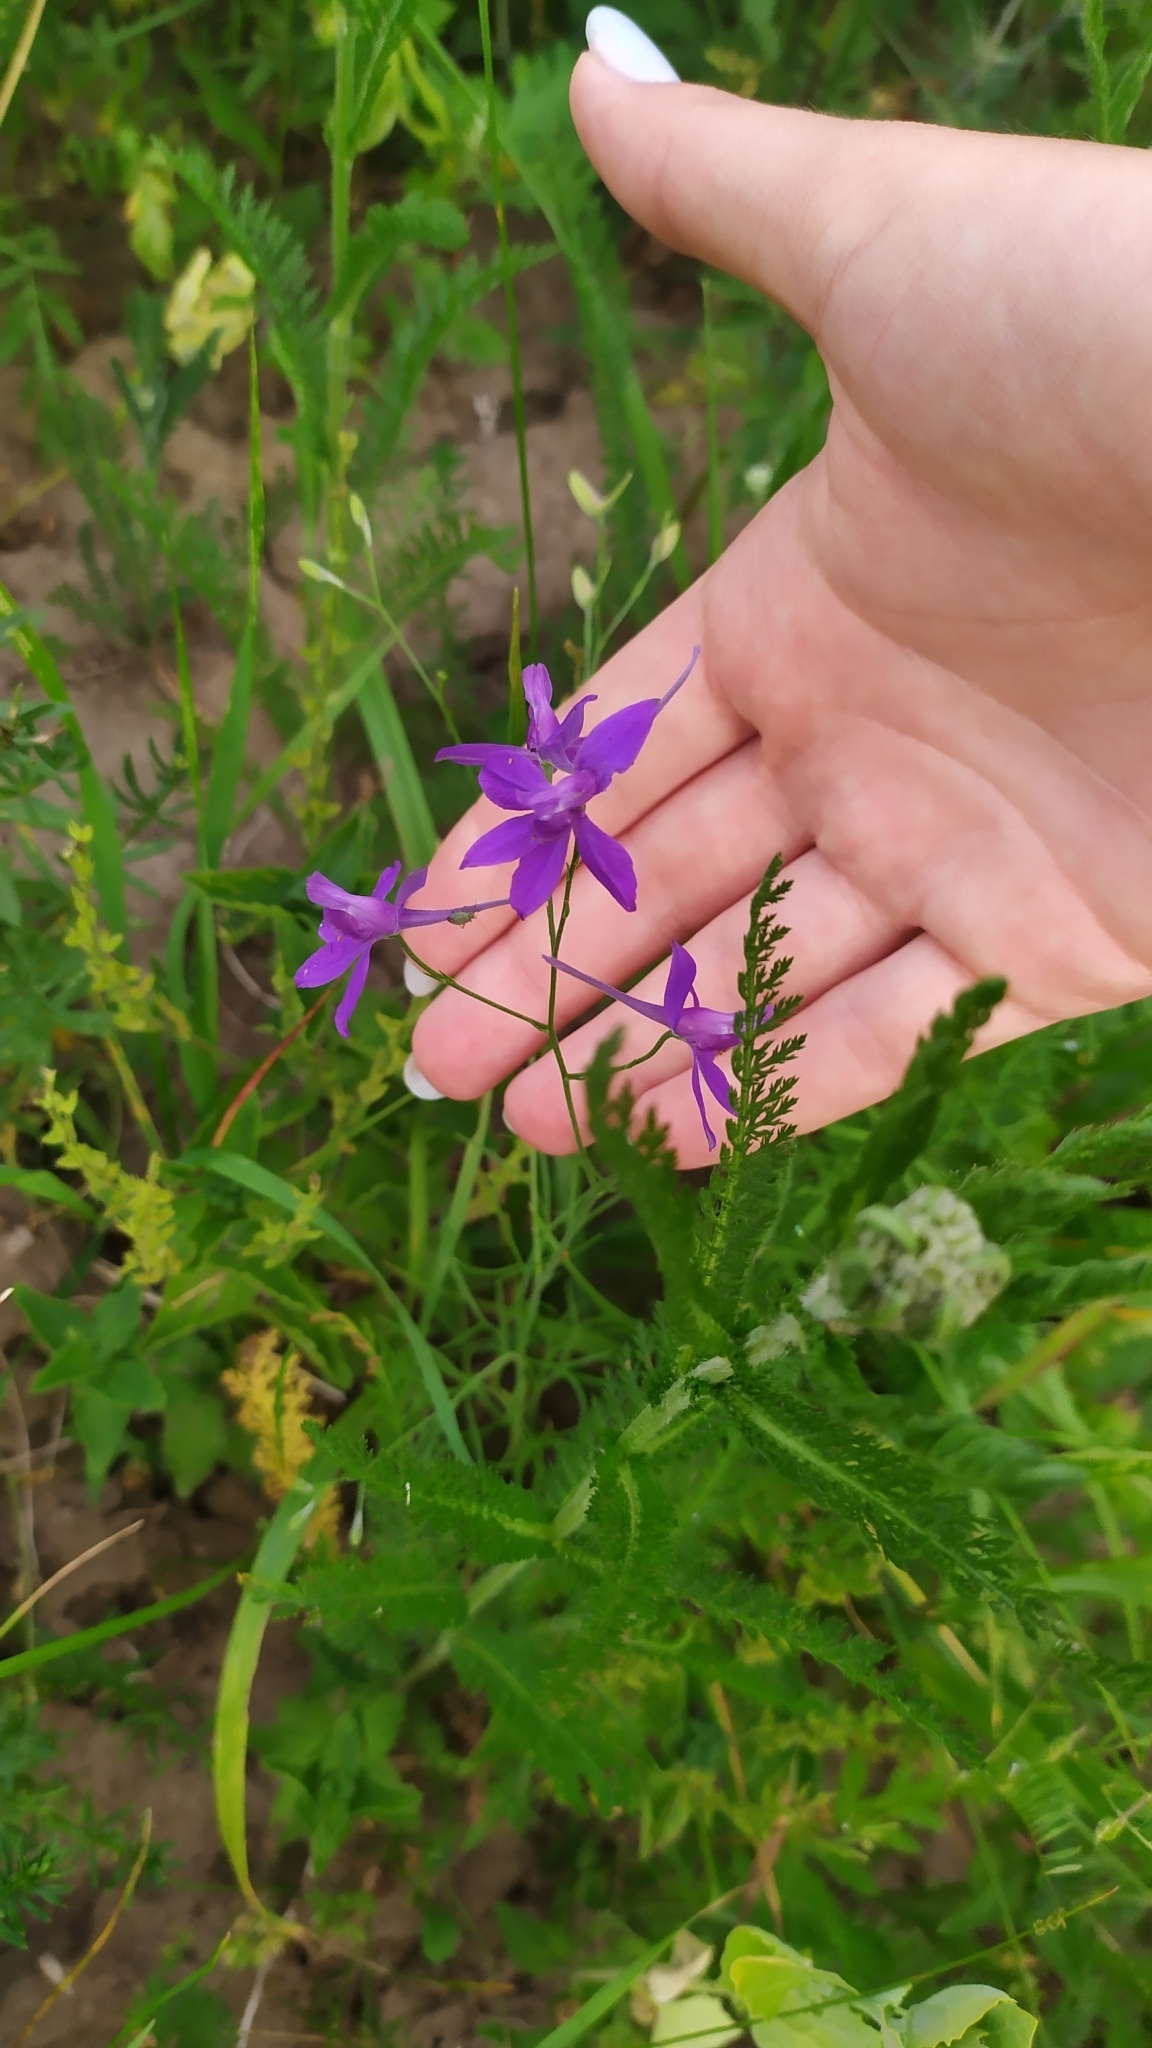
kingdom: Plantae
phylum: Tracheophyta
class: Magnoliopsida
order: Ranunculales
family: Ranunculaceae
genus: Delphinium
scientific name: Delphinium consolida
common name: Branching larkspur
